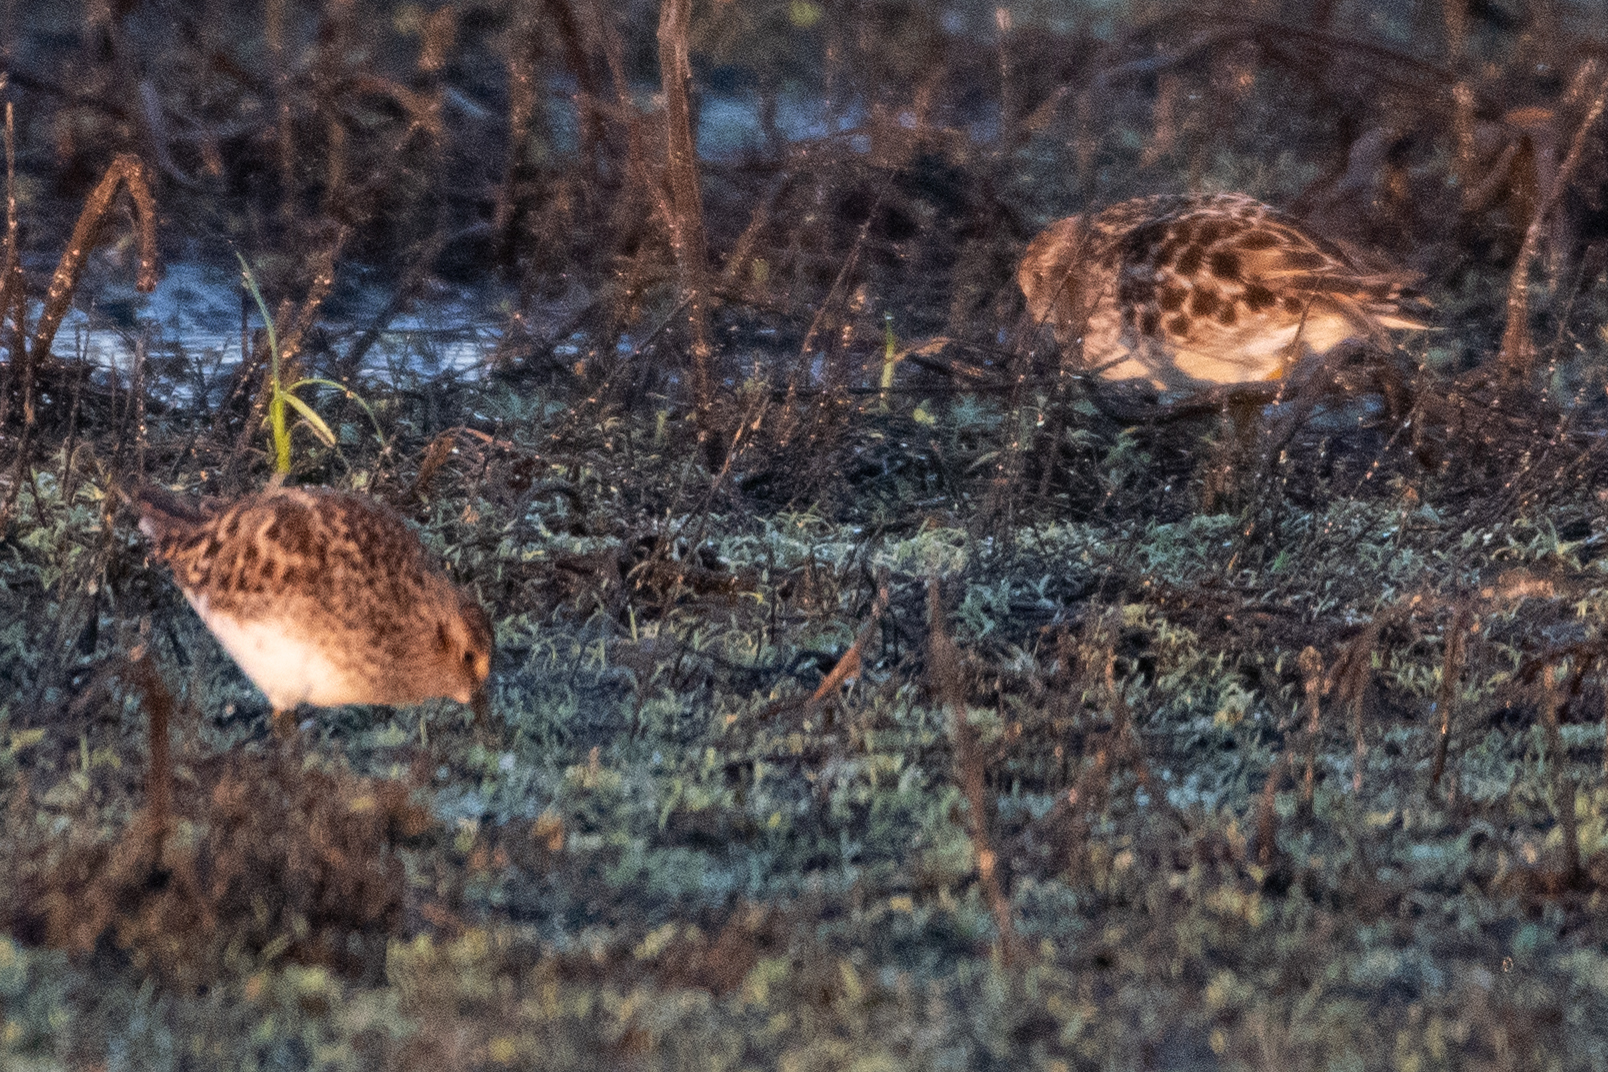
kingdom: Animalia
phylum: Chordata
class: Aves
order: Charadriiformes
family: Scolopacidae
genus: Calidris
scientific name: Calidris minutilla
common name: Least sandpiper
